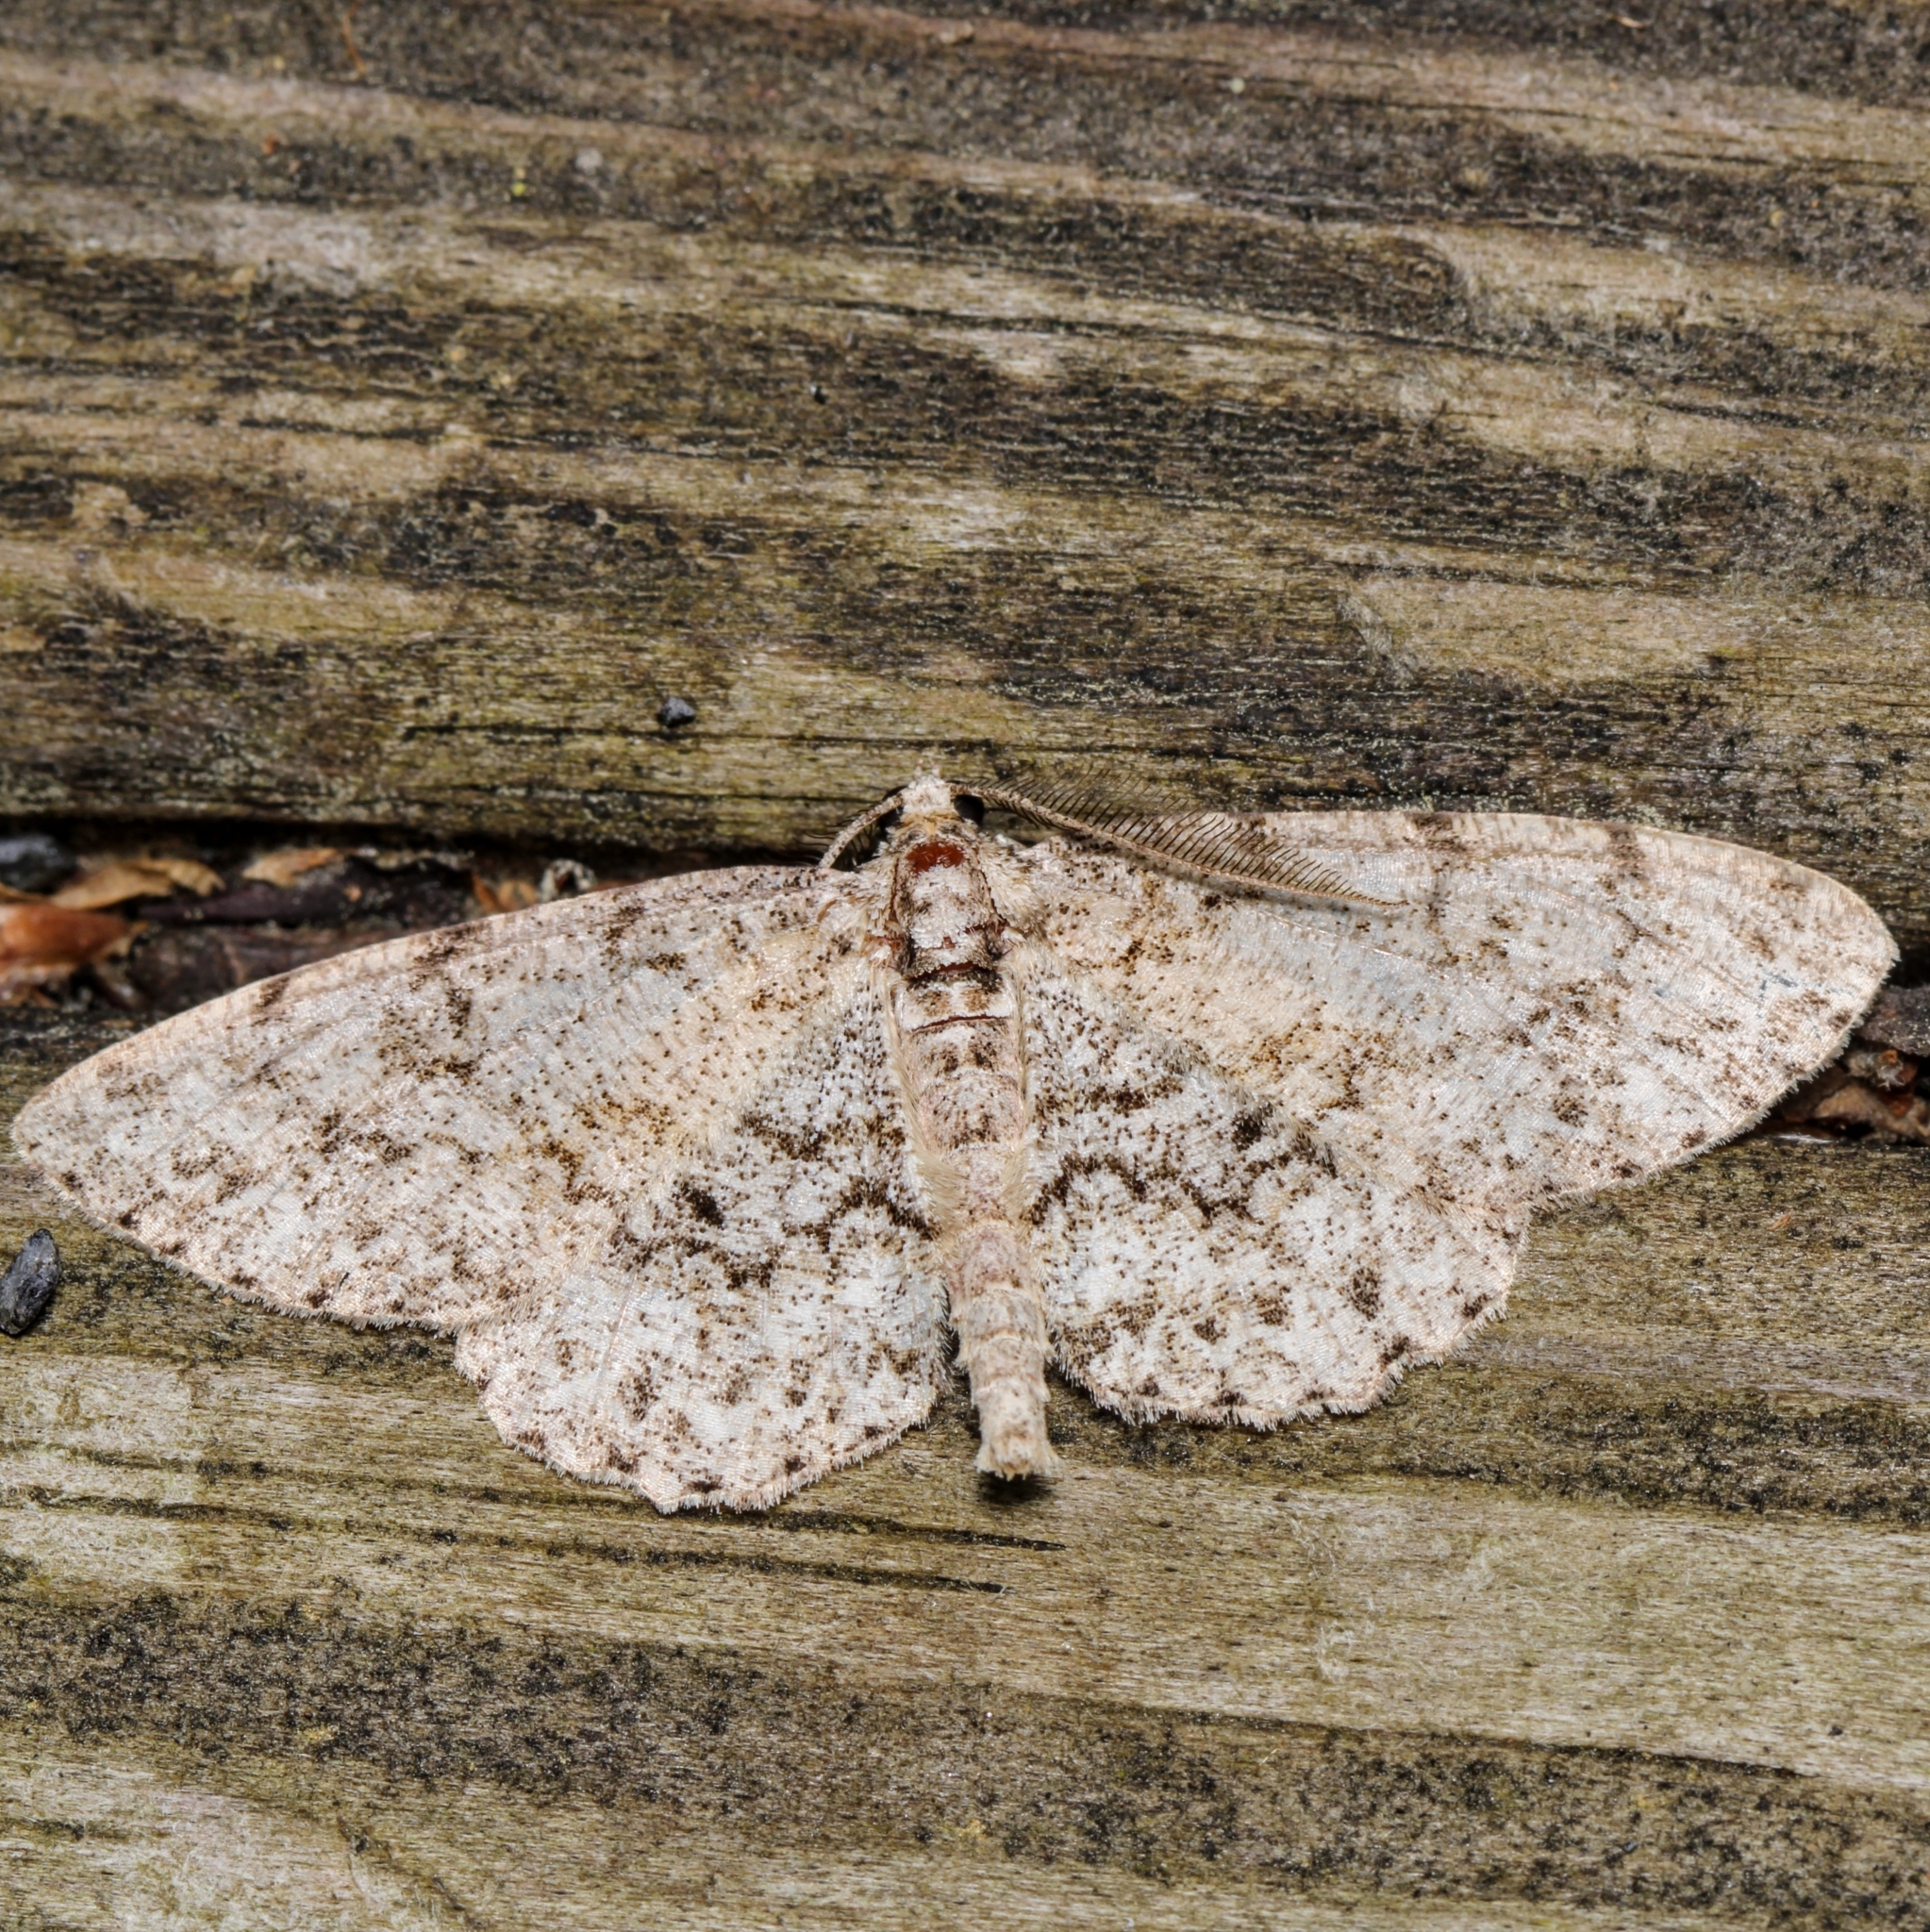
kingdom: Animalia
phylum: Arthropoda
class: Insecta
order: Lepidoptera
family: Geometridae
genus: Protoboarmia
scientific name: Protoboarmia porcelaria
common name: Porcelain gray
